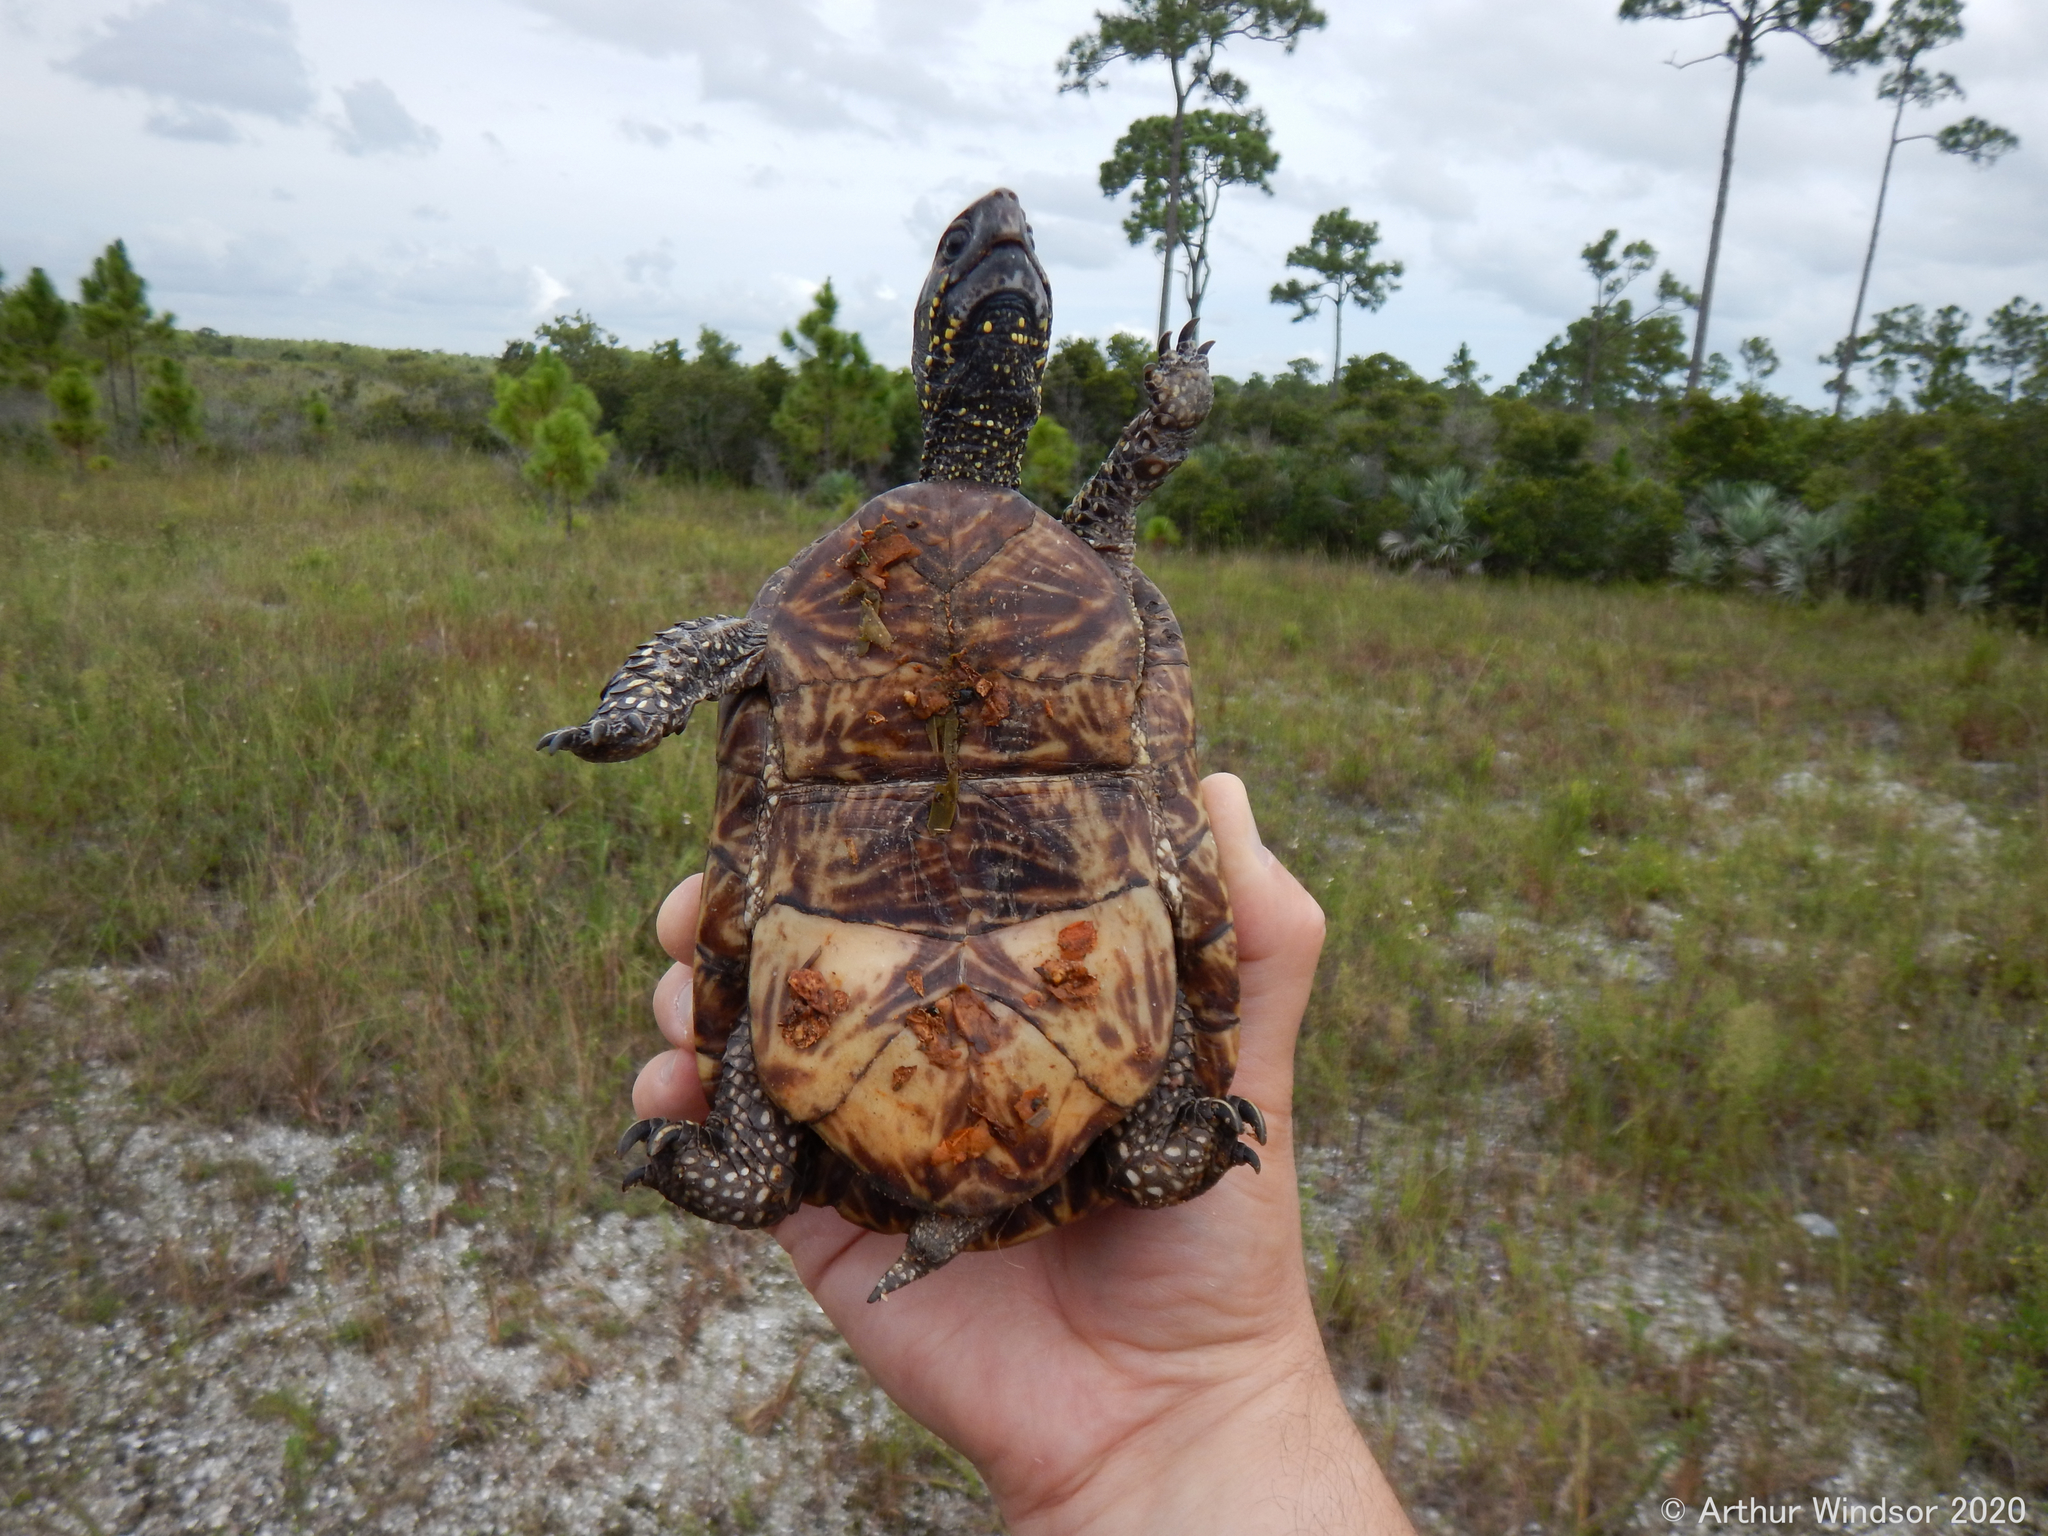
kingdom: Animalia
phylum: Chordata
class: Testudines
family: Emydidae
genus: Terrapene
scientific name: Terrapene carolina
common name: Common box turtle
